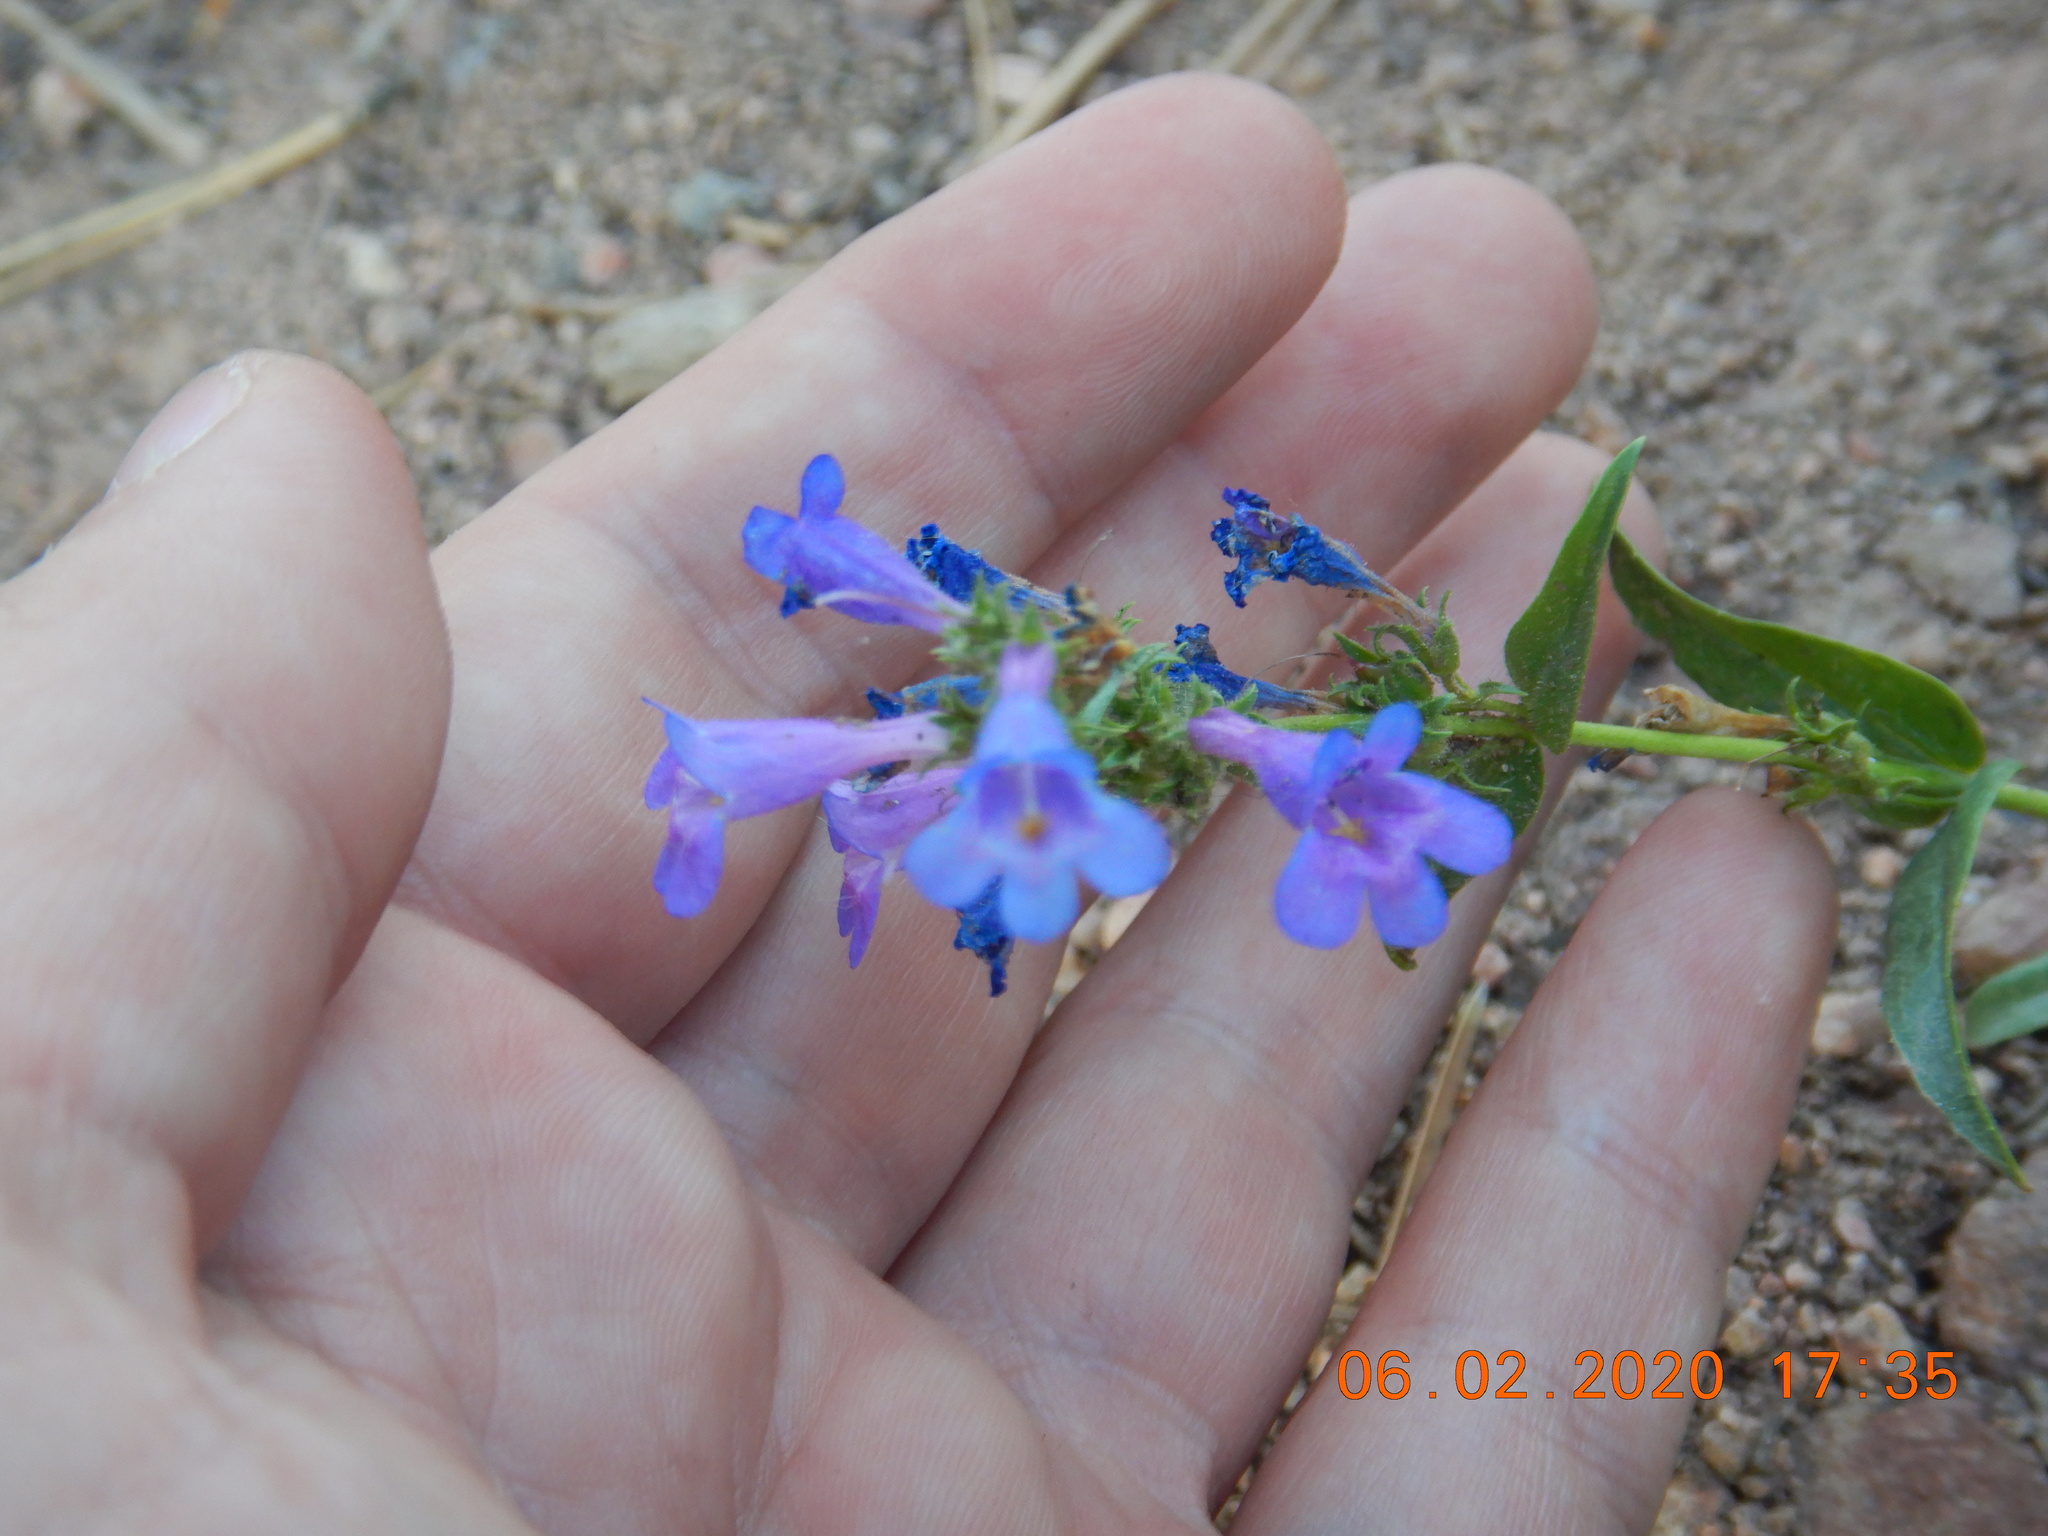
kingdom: Plantae
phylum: Tracheophyta
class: Magnoliopsida
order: Lamiales
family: Plantaginaceae
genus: Penstemon
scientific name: Penstemon virens
